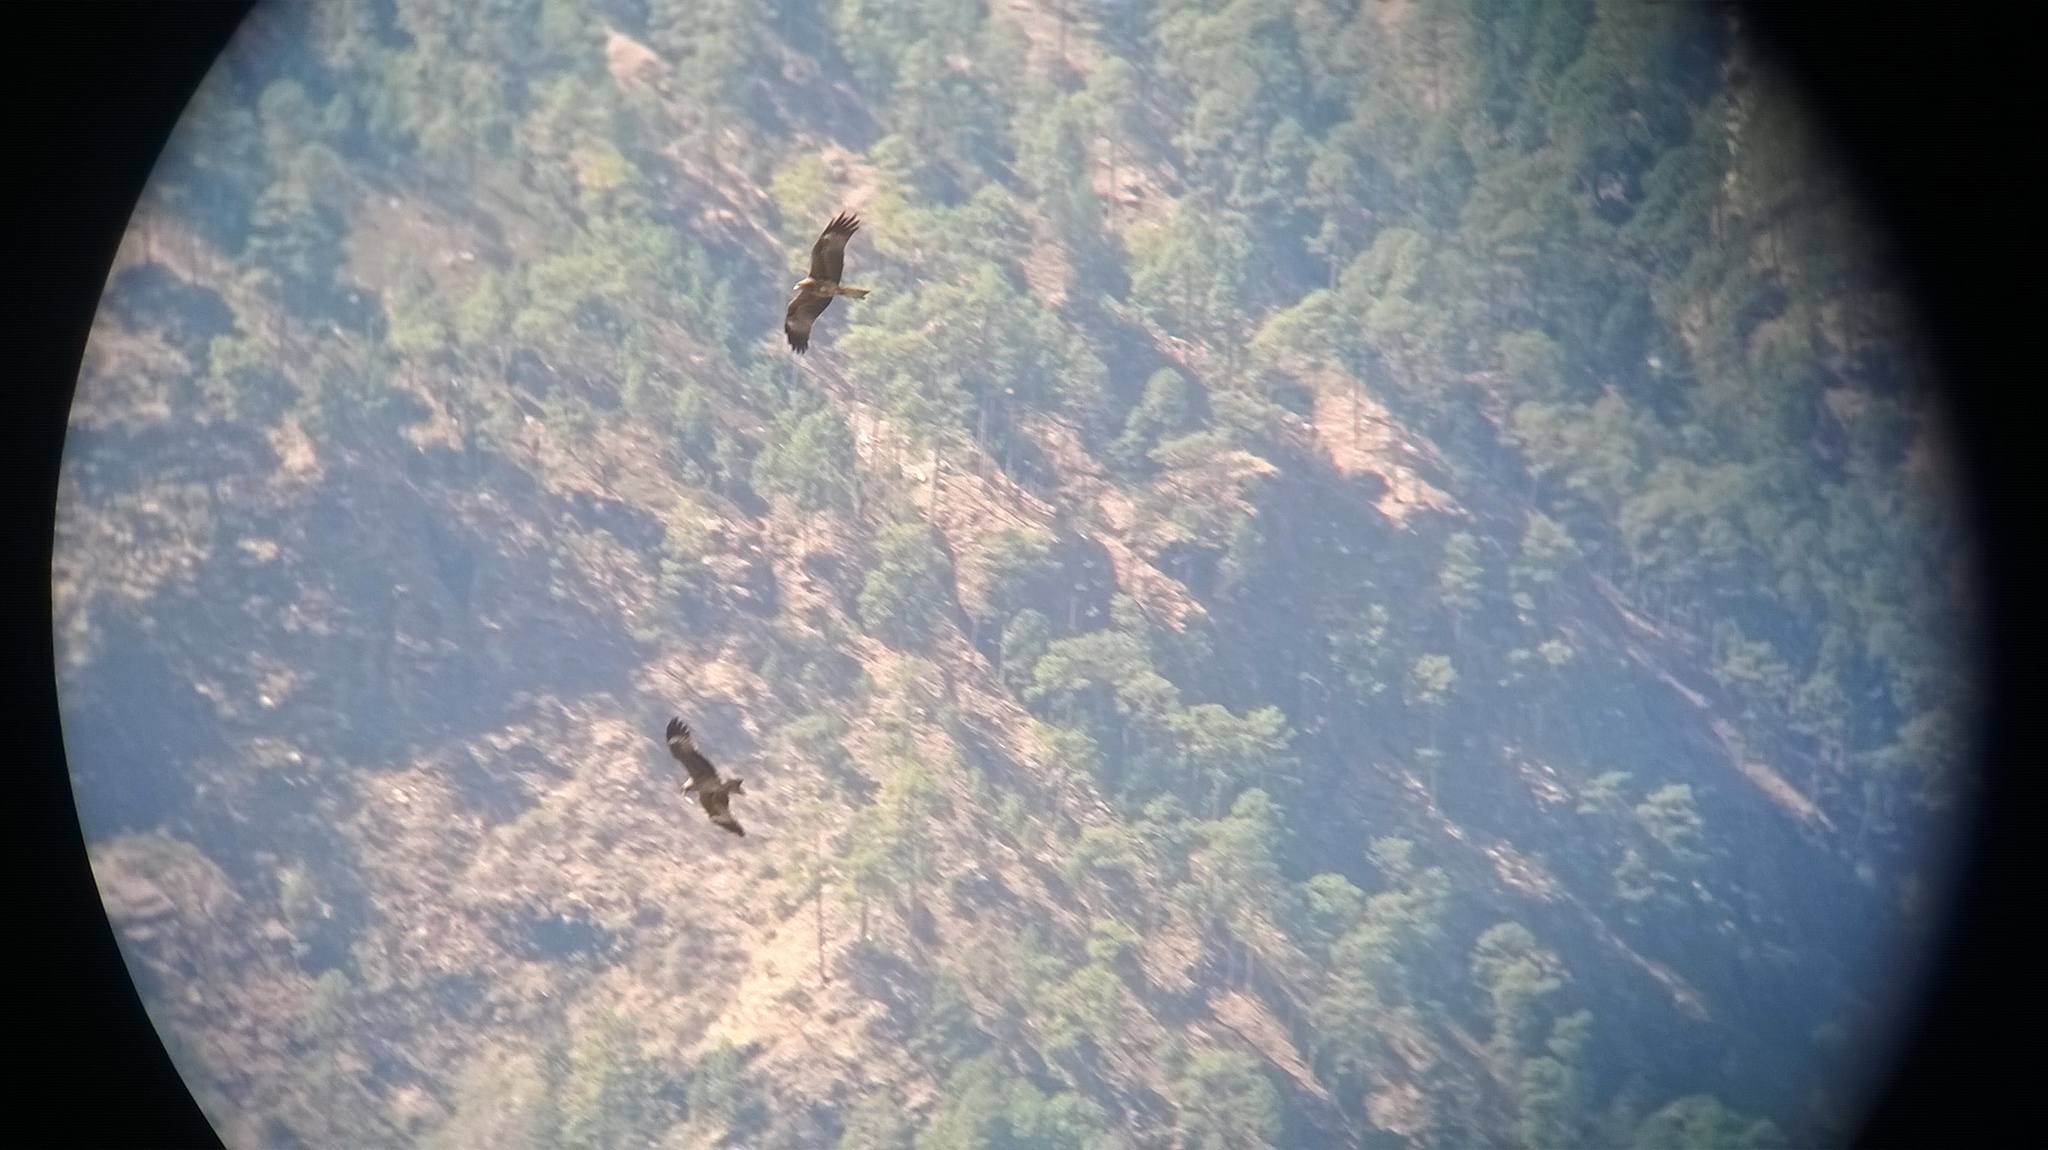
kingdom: Animalia
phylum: Chordata
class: Aves
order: Accipitriformes
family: Accipitridae
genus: Milvus
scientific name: Milvus migrans
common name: Black kite
